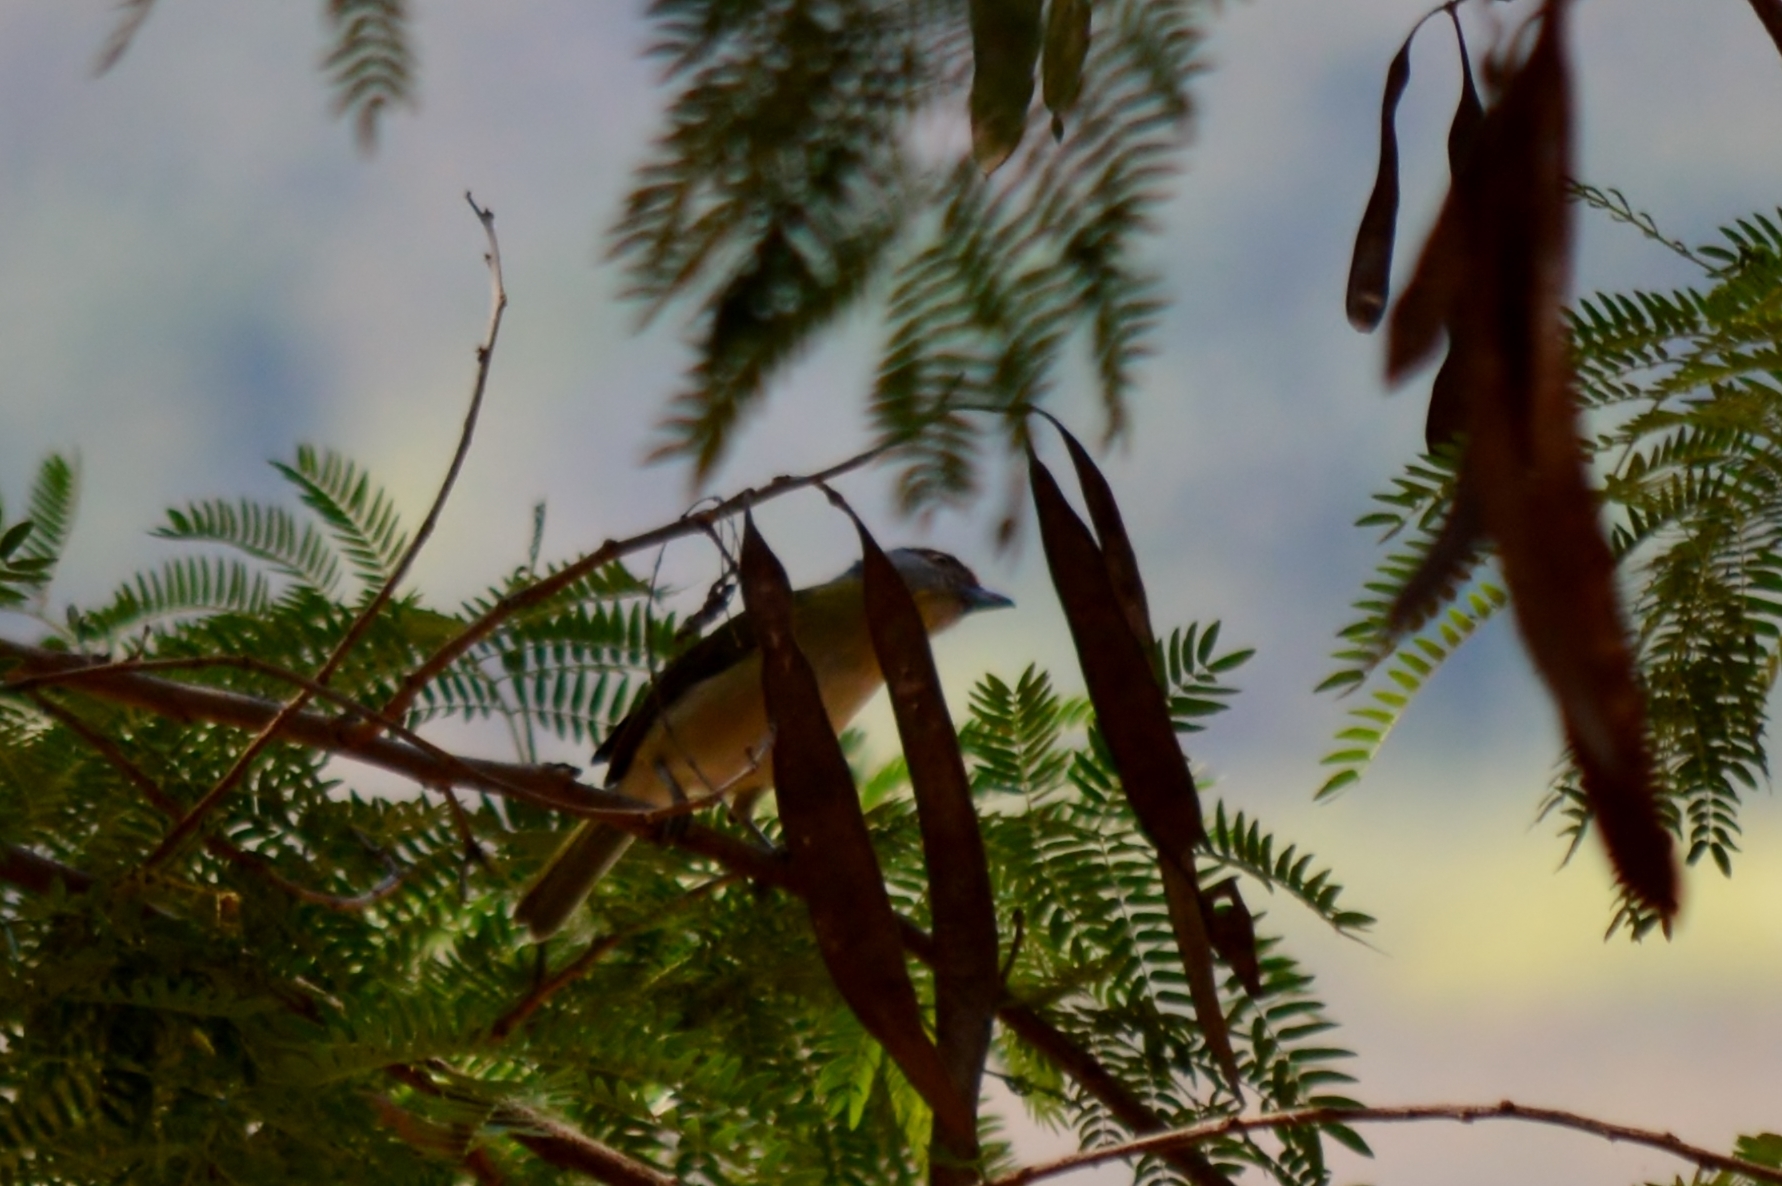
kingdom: Animalia
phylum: Chordata
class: Aves
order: Passeriformes
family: Vireonidae
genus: Cyclarhis
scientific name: Cyclarhis gujanensis
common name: Rufous-browed peppershrike
